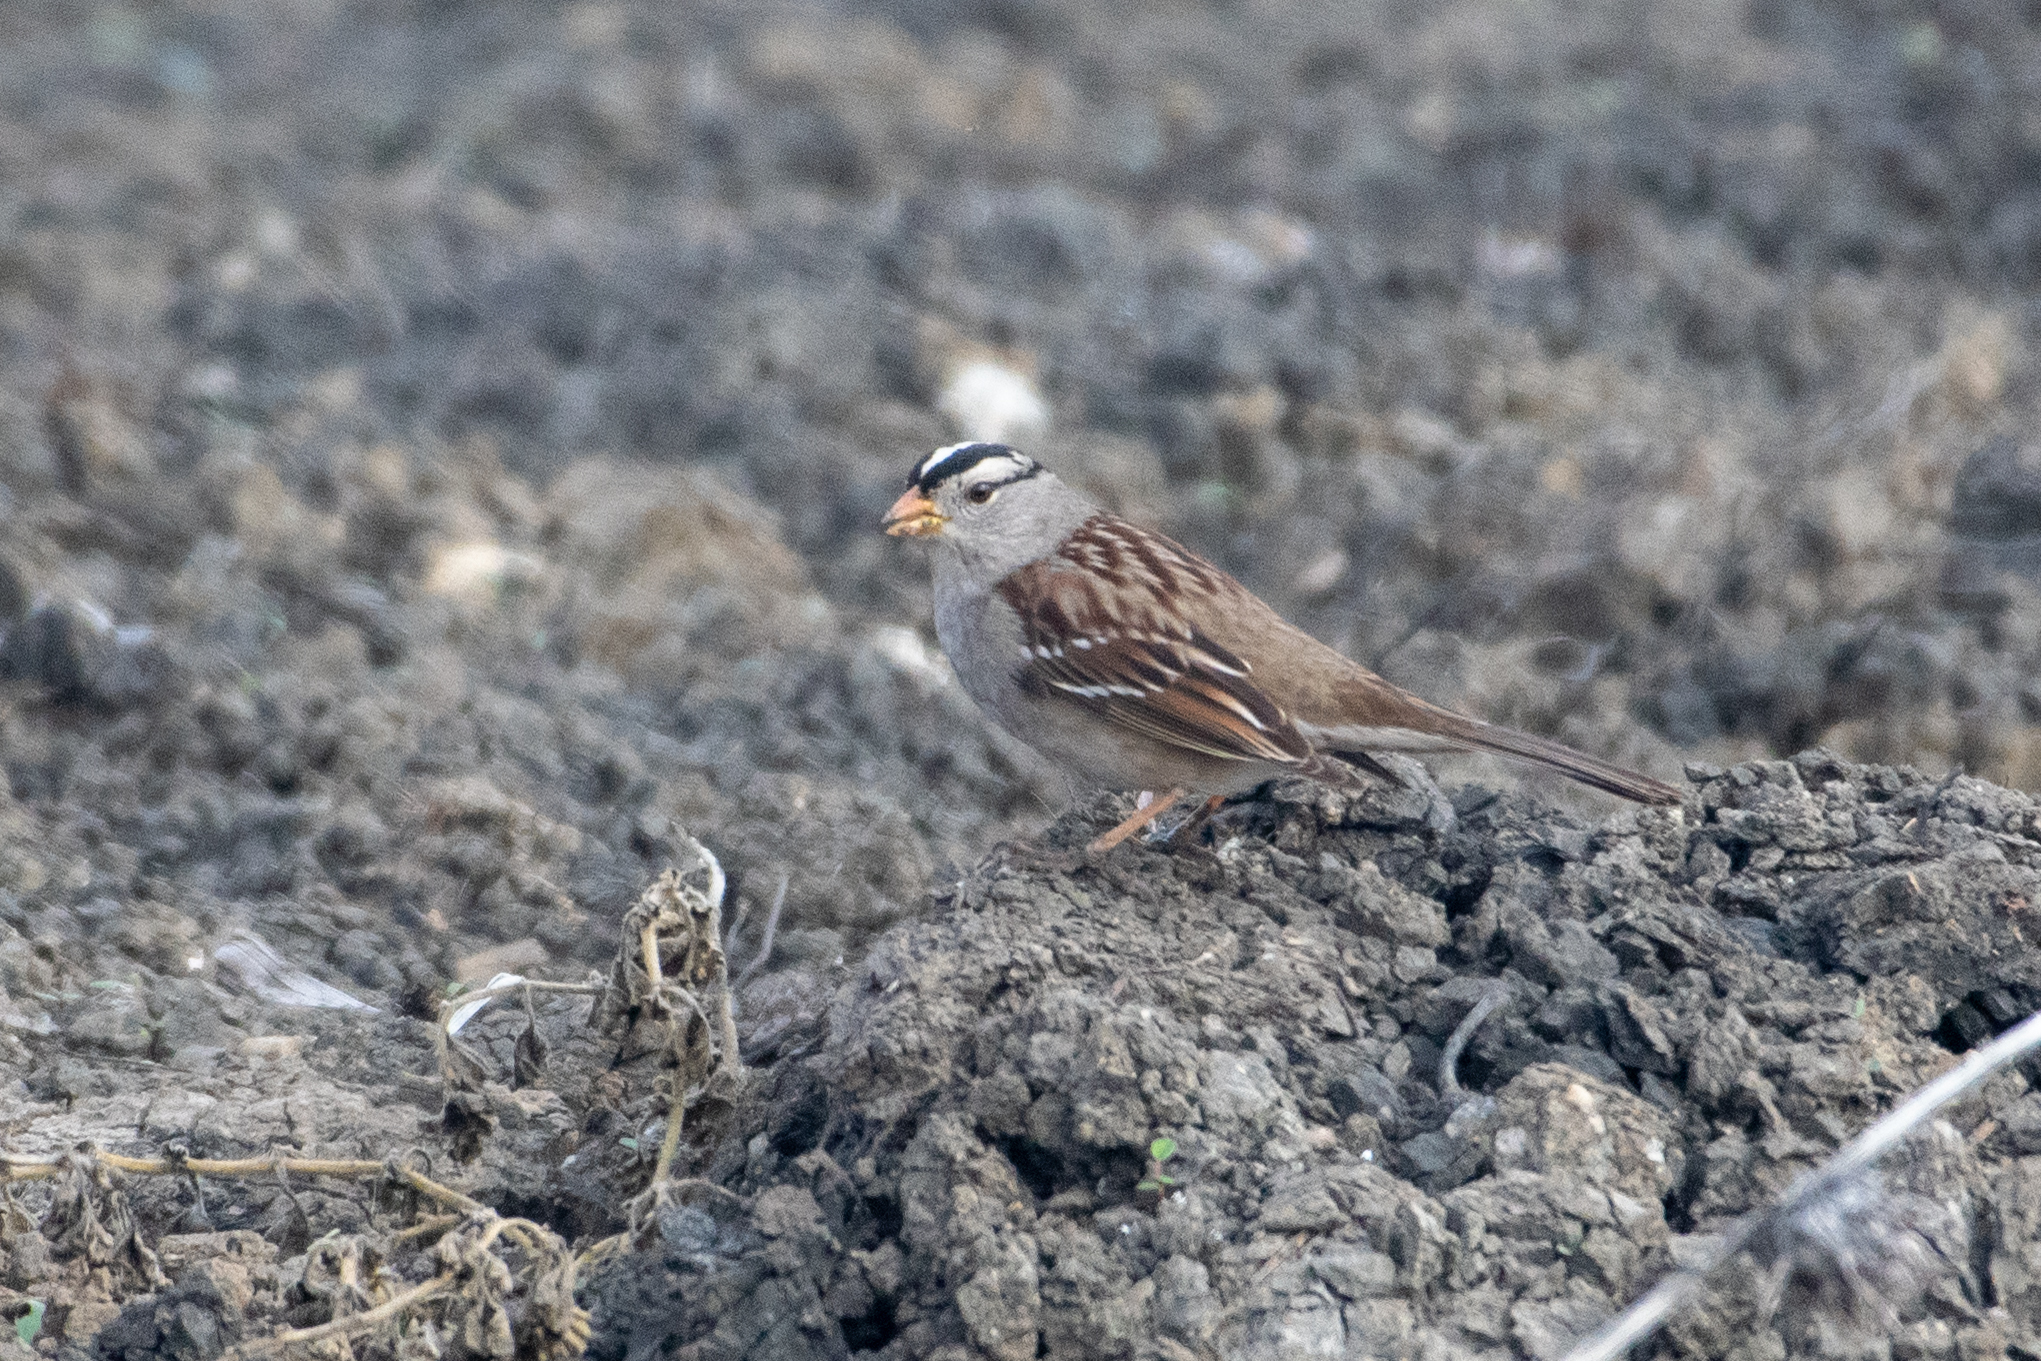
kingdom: Animalia
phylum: Chordata
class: Aves
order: Passeriformes
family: Passerellidae
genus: Zonotrichia
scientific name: Zonotrichia leucophrys
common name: White-crowned sparrow
